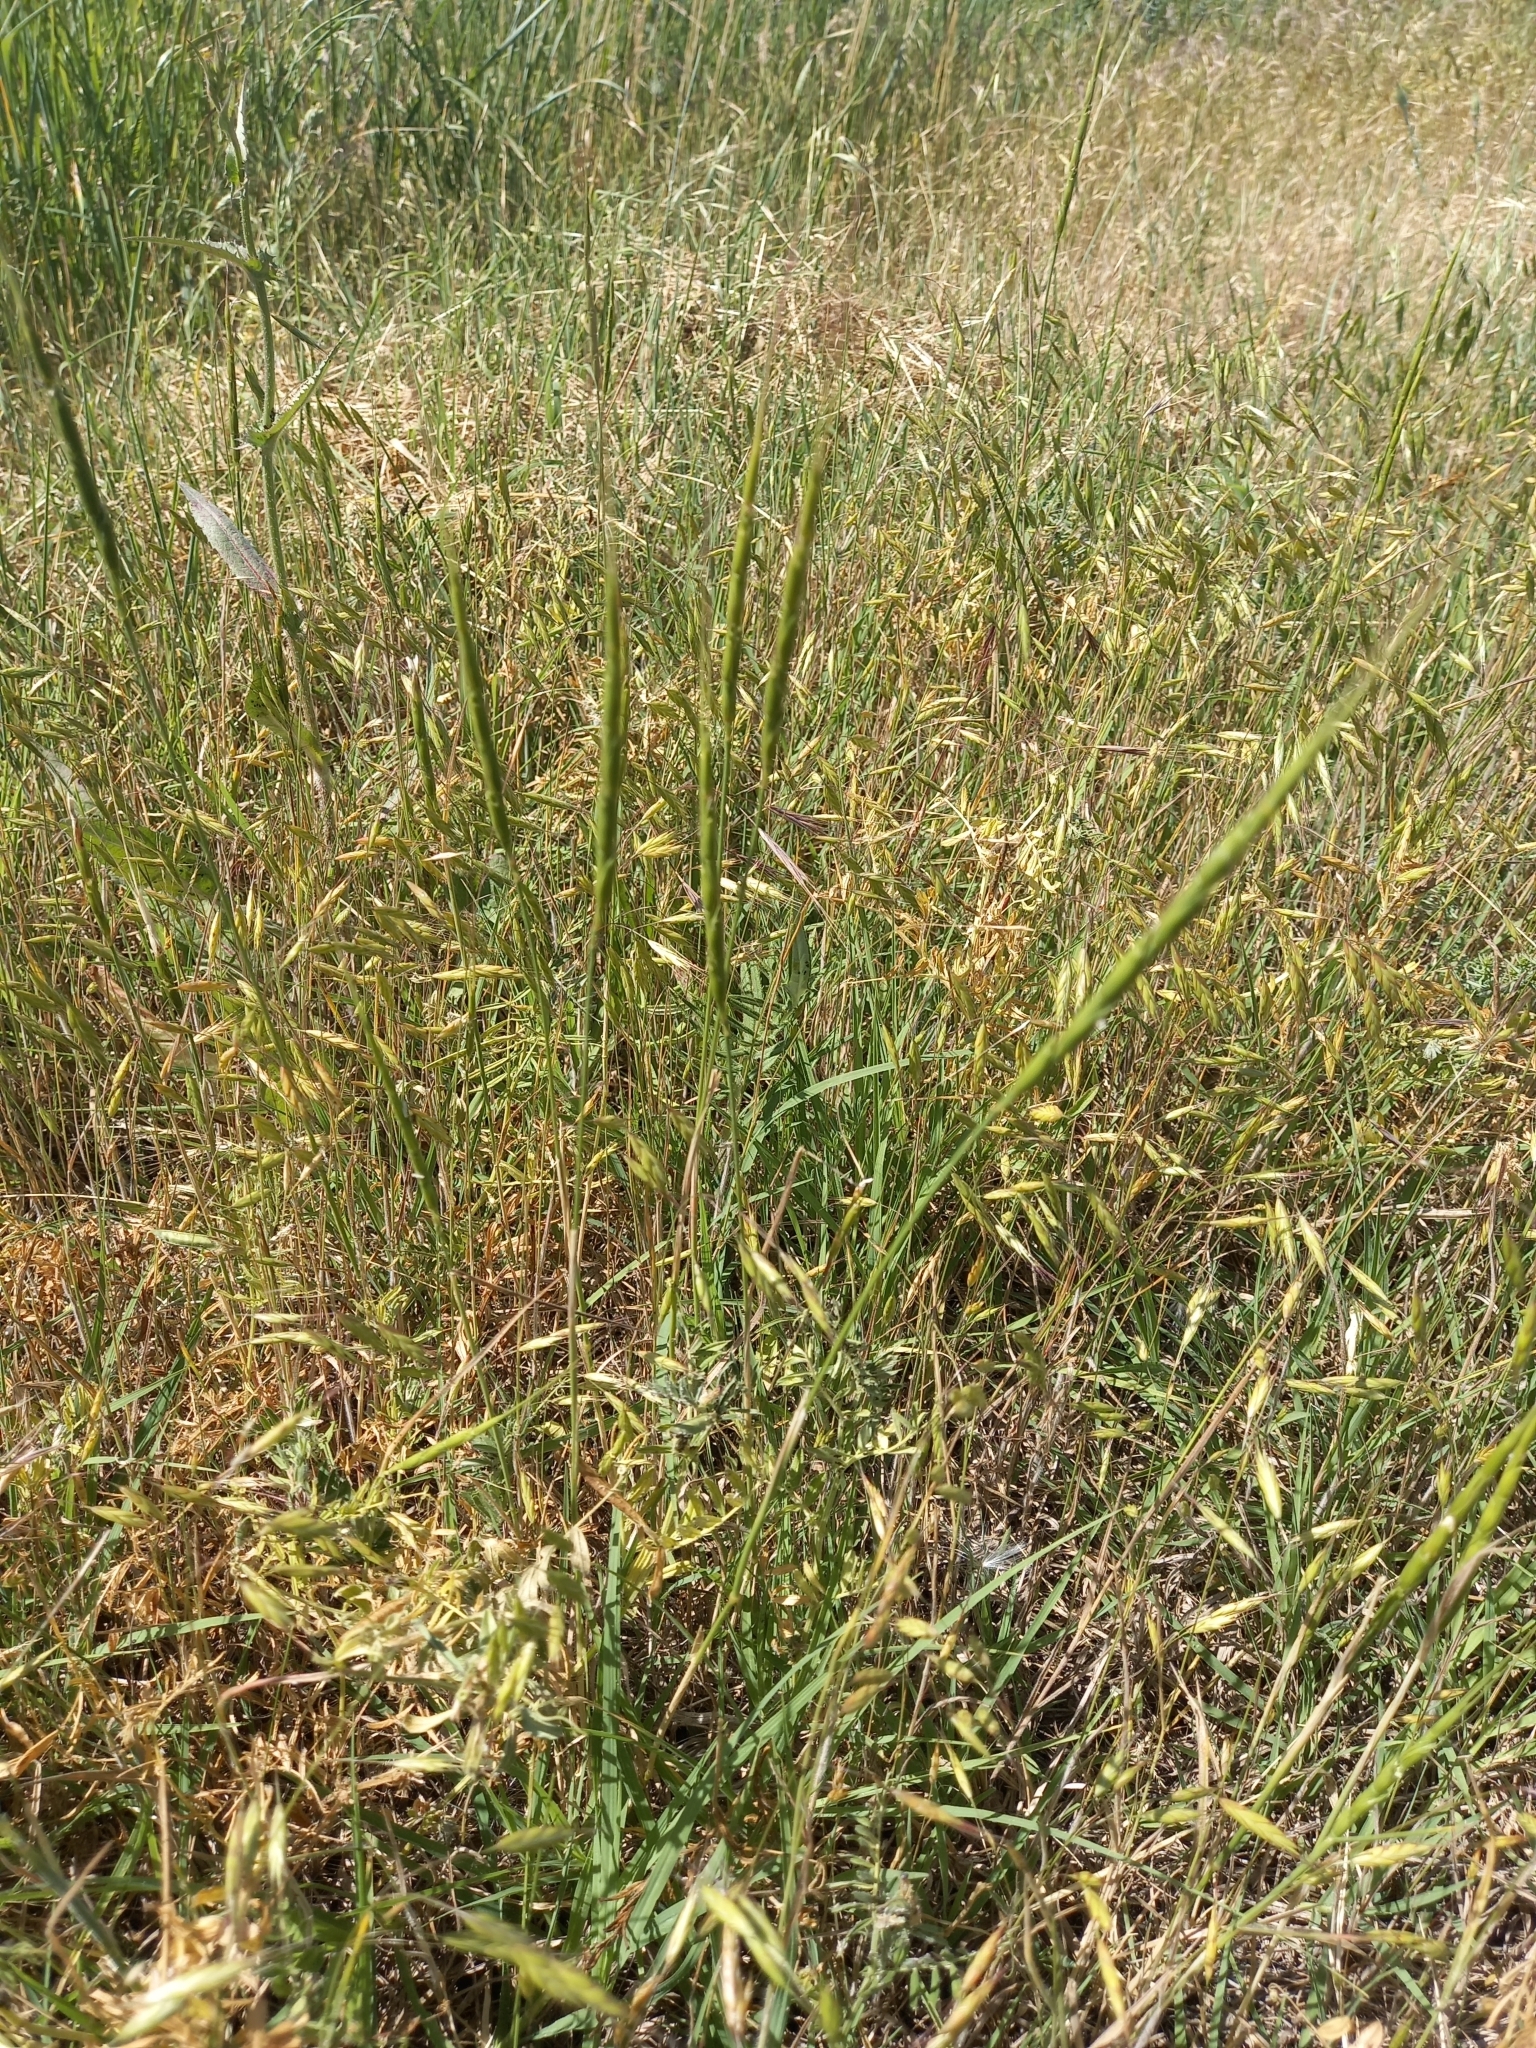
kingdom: Plantae
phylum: Tracheophyta
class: Liliopsida
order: Poales
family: Poaceae
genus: Aegilops
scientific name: Aegilops cylindrica
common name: Jointed goatgrass
